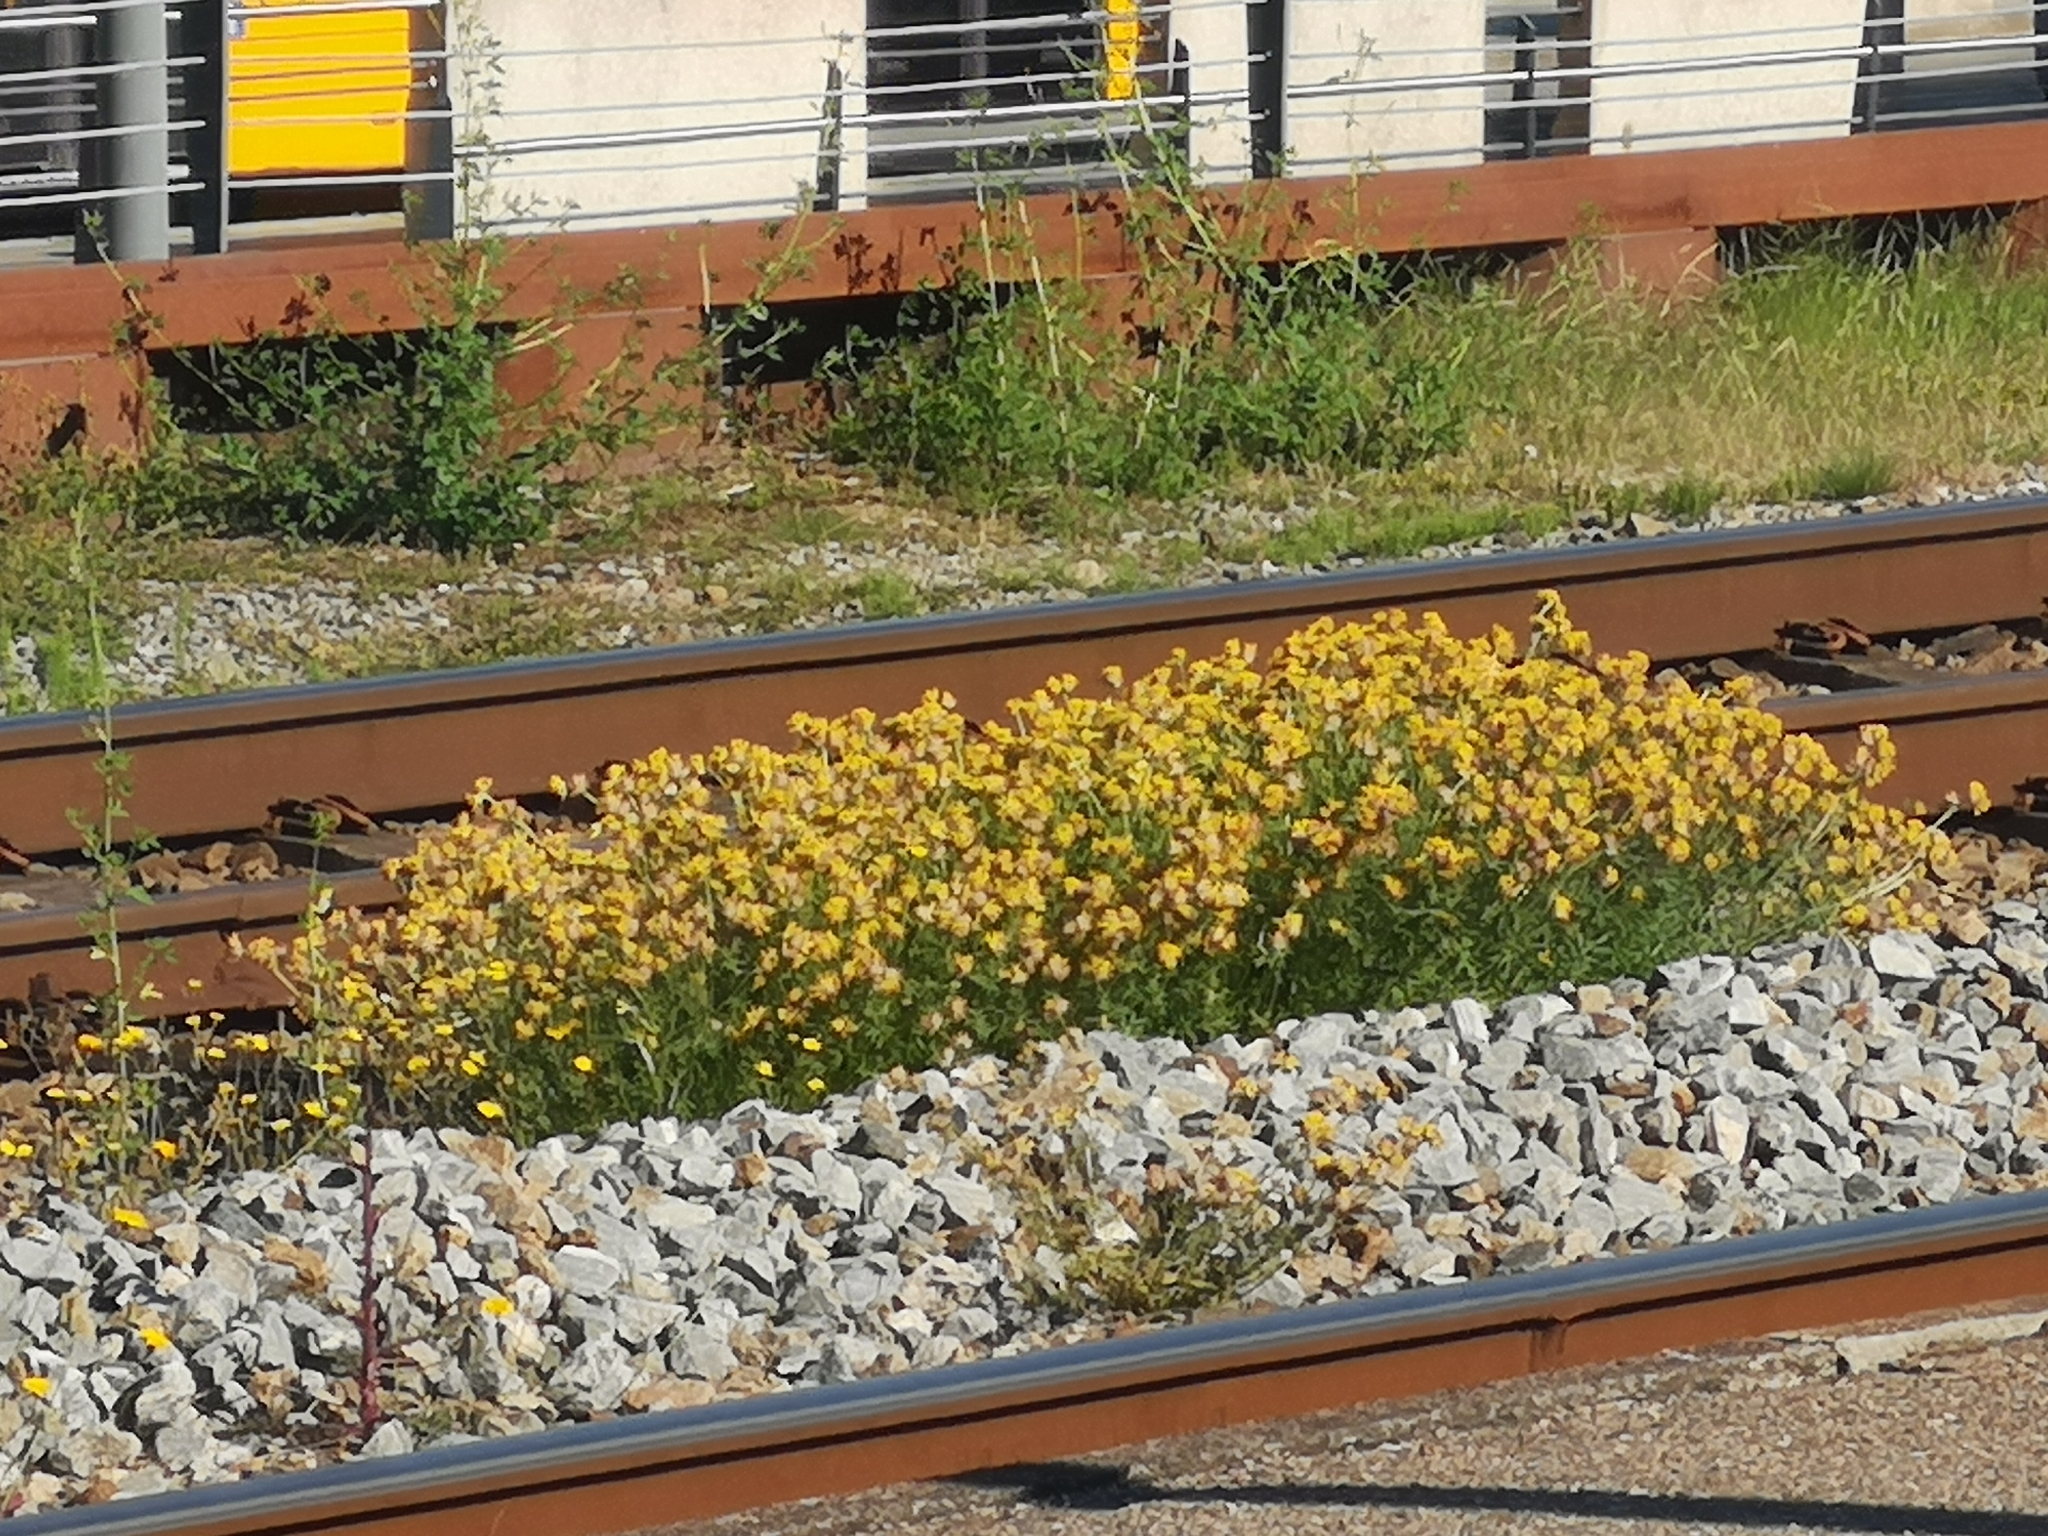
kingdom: Plantae
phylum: Tracheophyta
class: Magnoliopsida
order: Fabales
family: Fabaceae
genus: Anthyllis
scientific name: Anthyllis vulneraria
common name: Kidney vetch
